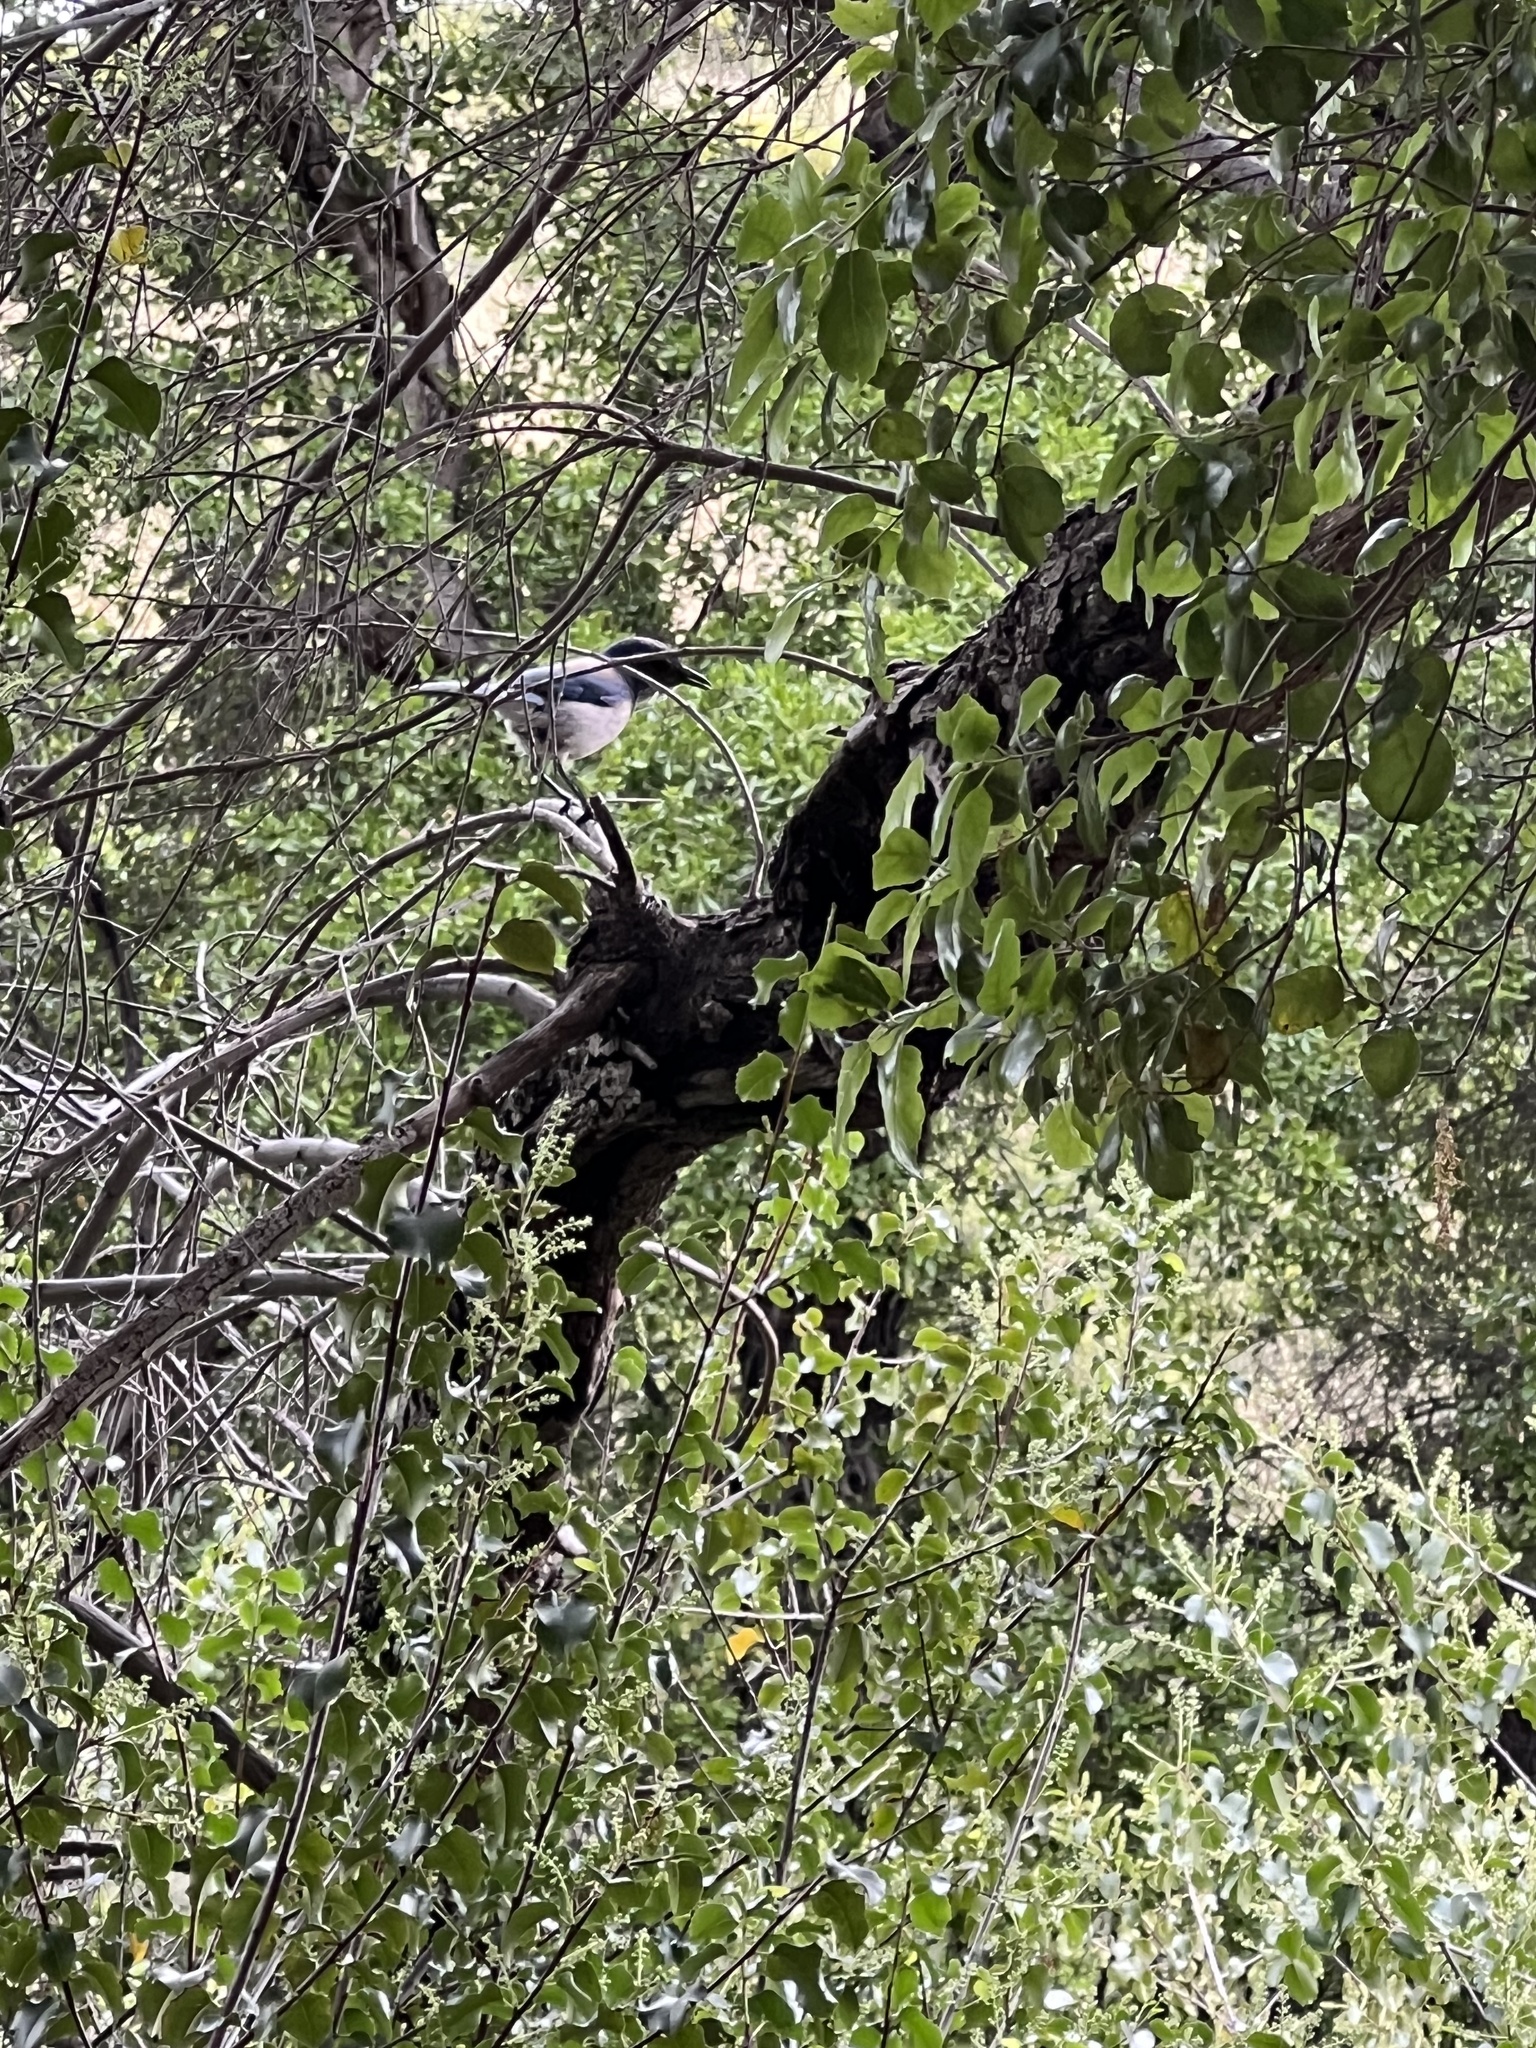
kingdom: Animalia
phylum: Chordata
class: Aves
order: Passeriformes
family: Corvidae
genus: Aphelocoma
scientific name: Aphelocoma californica
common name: California scrub-jay
